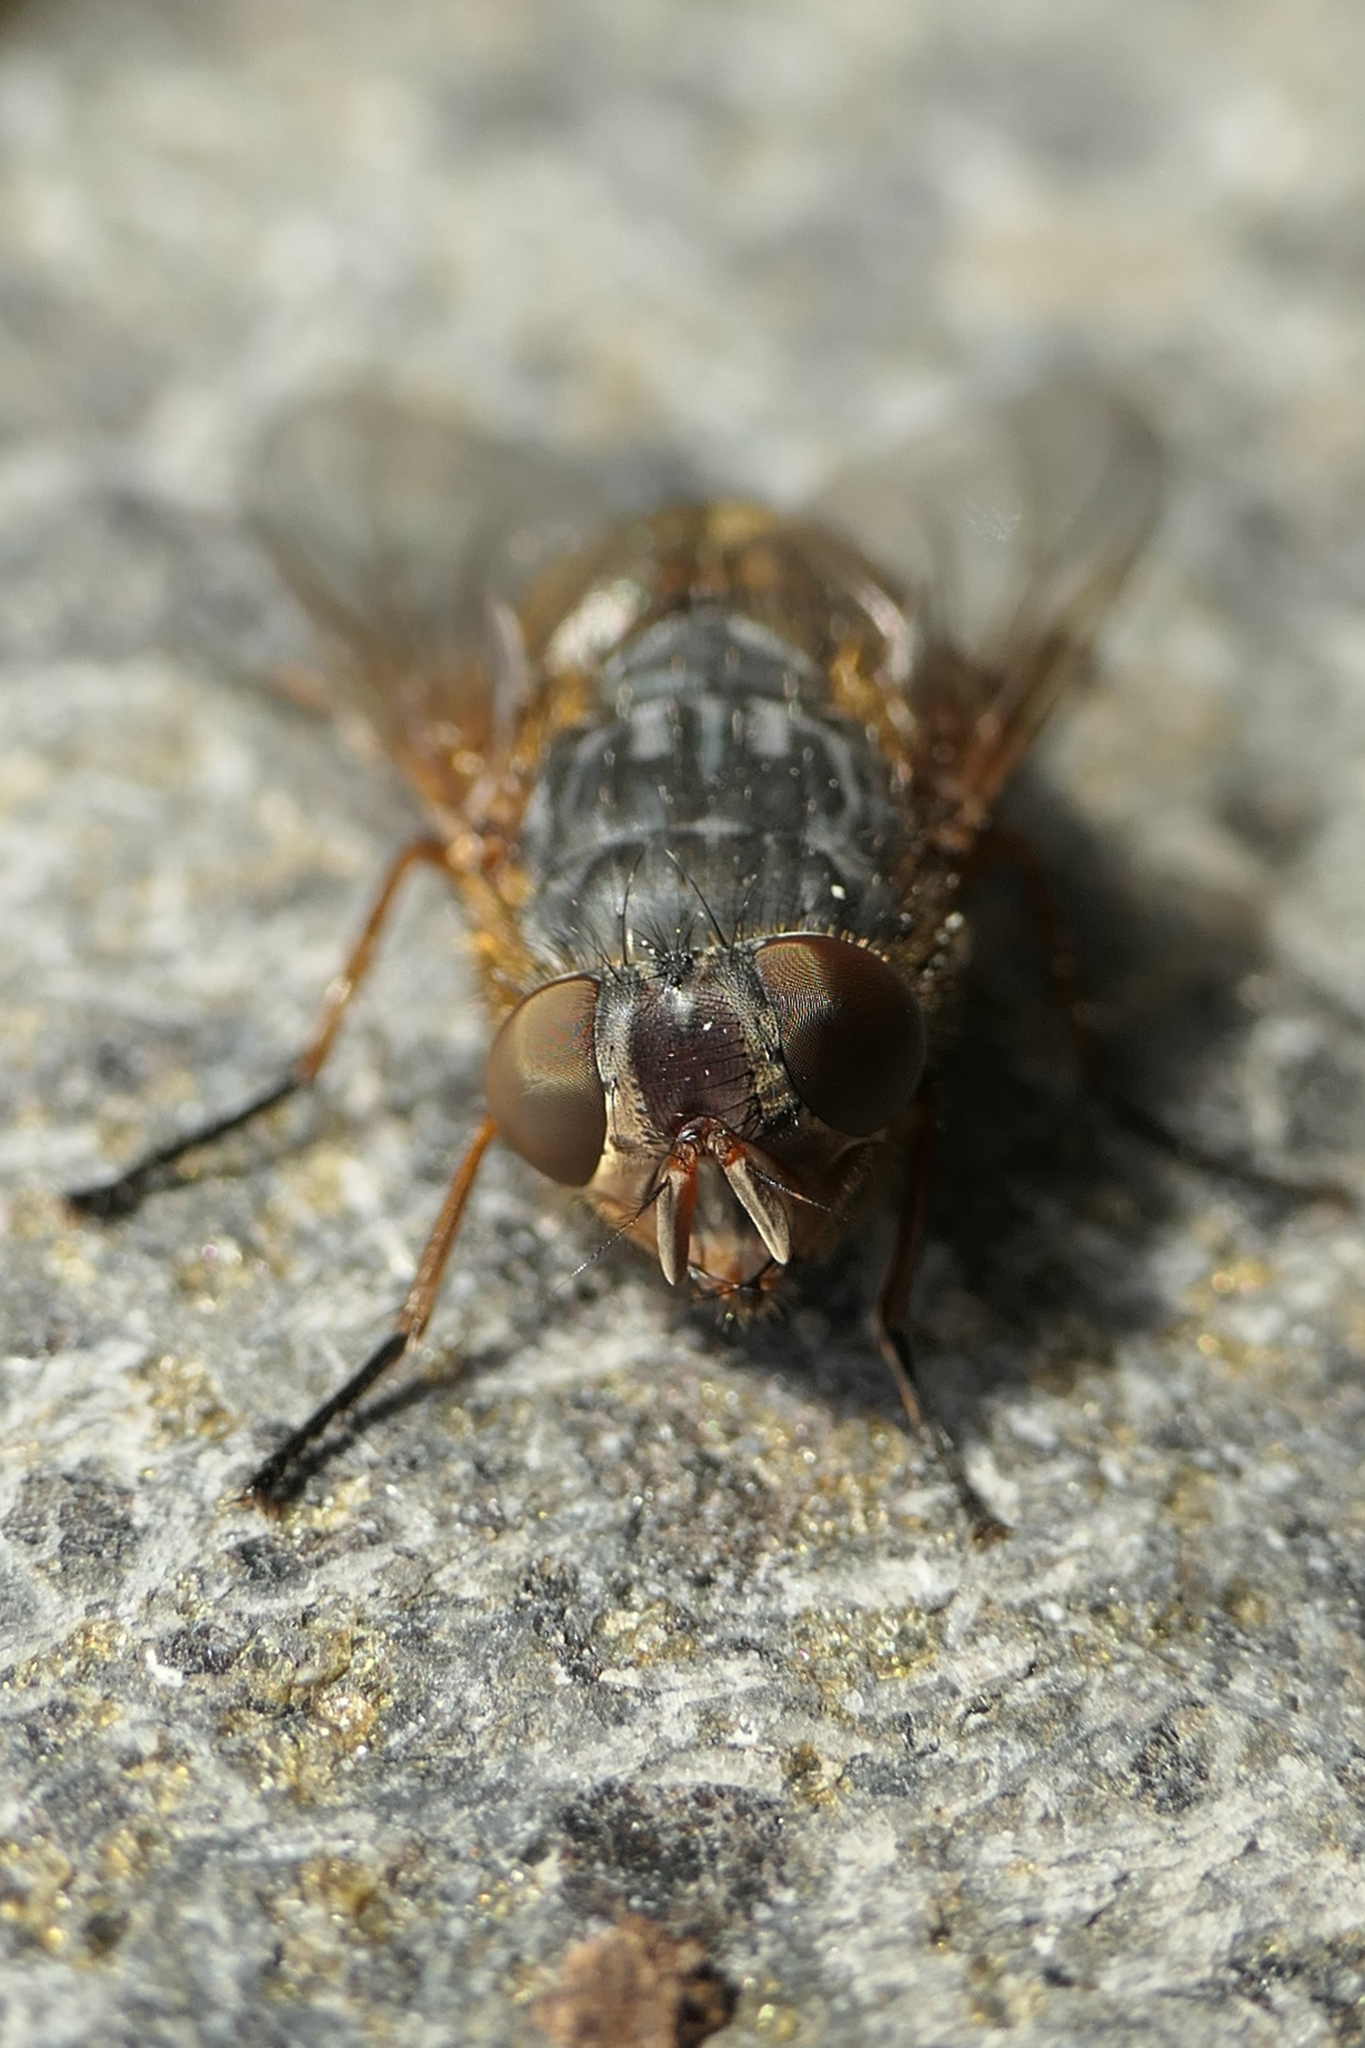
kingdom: Animalia
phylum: Arthropoda
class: Insecta
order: Diptera
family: Calliphoridae
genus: Calliphora
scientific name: Calliphora stygia
